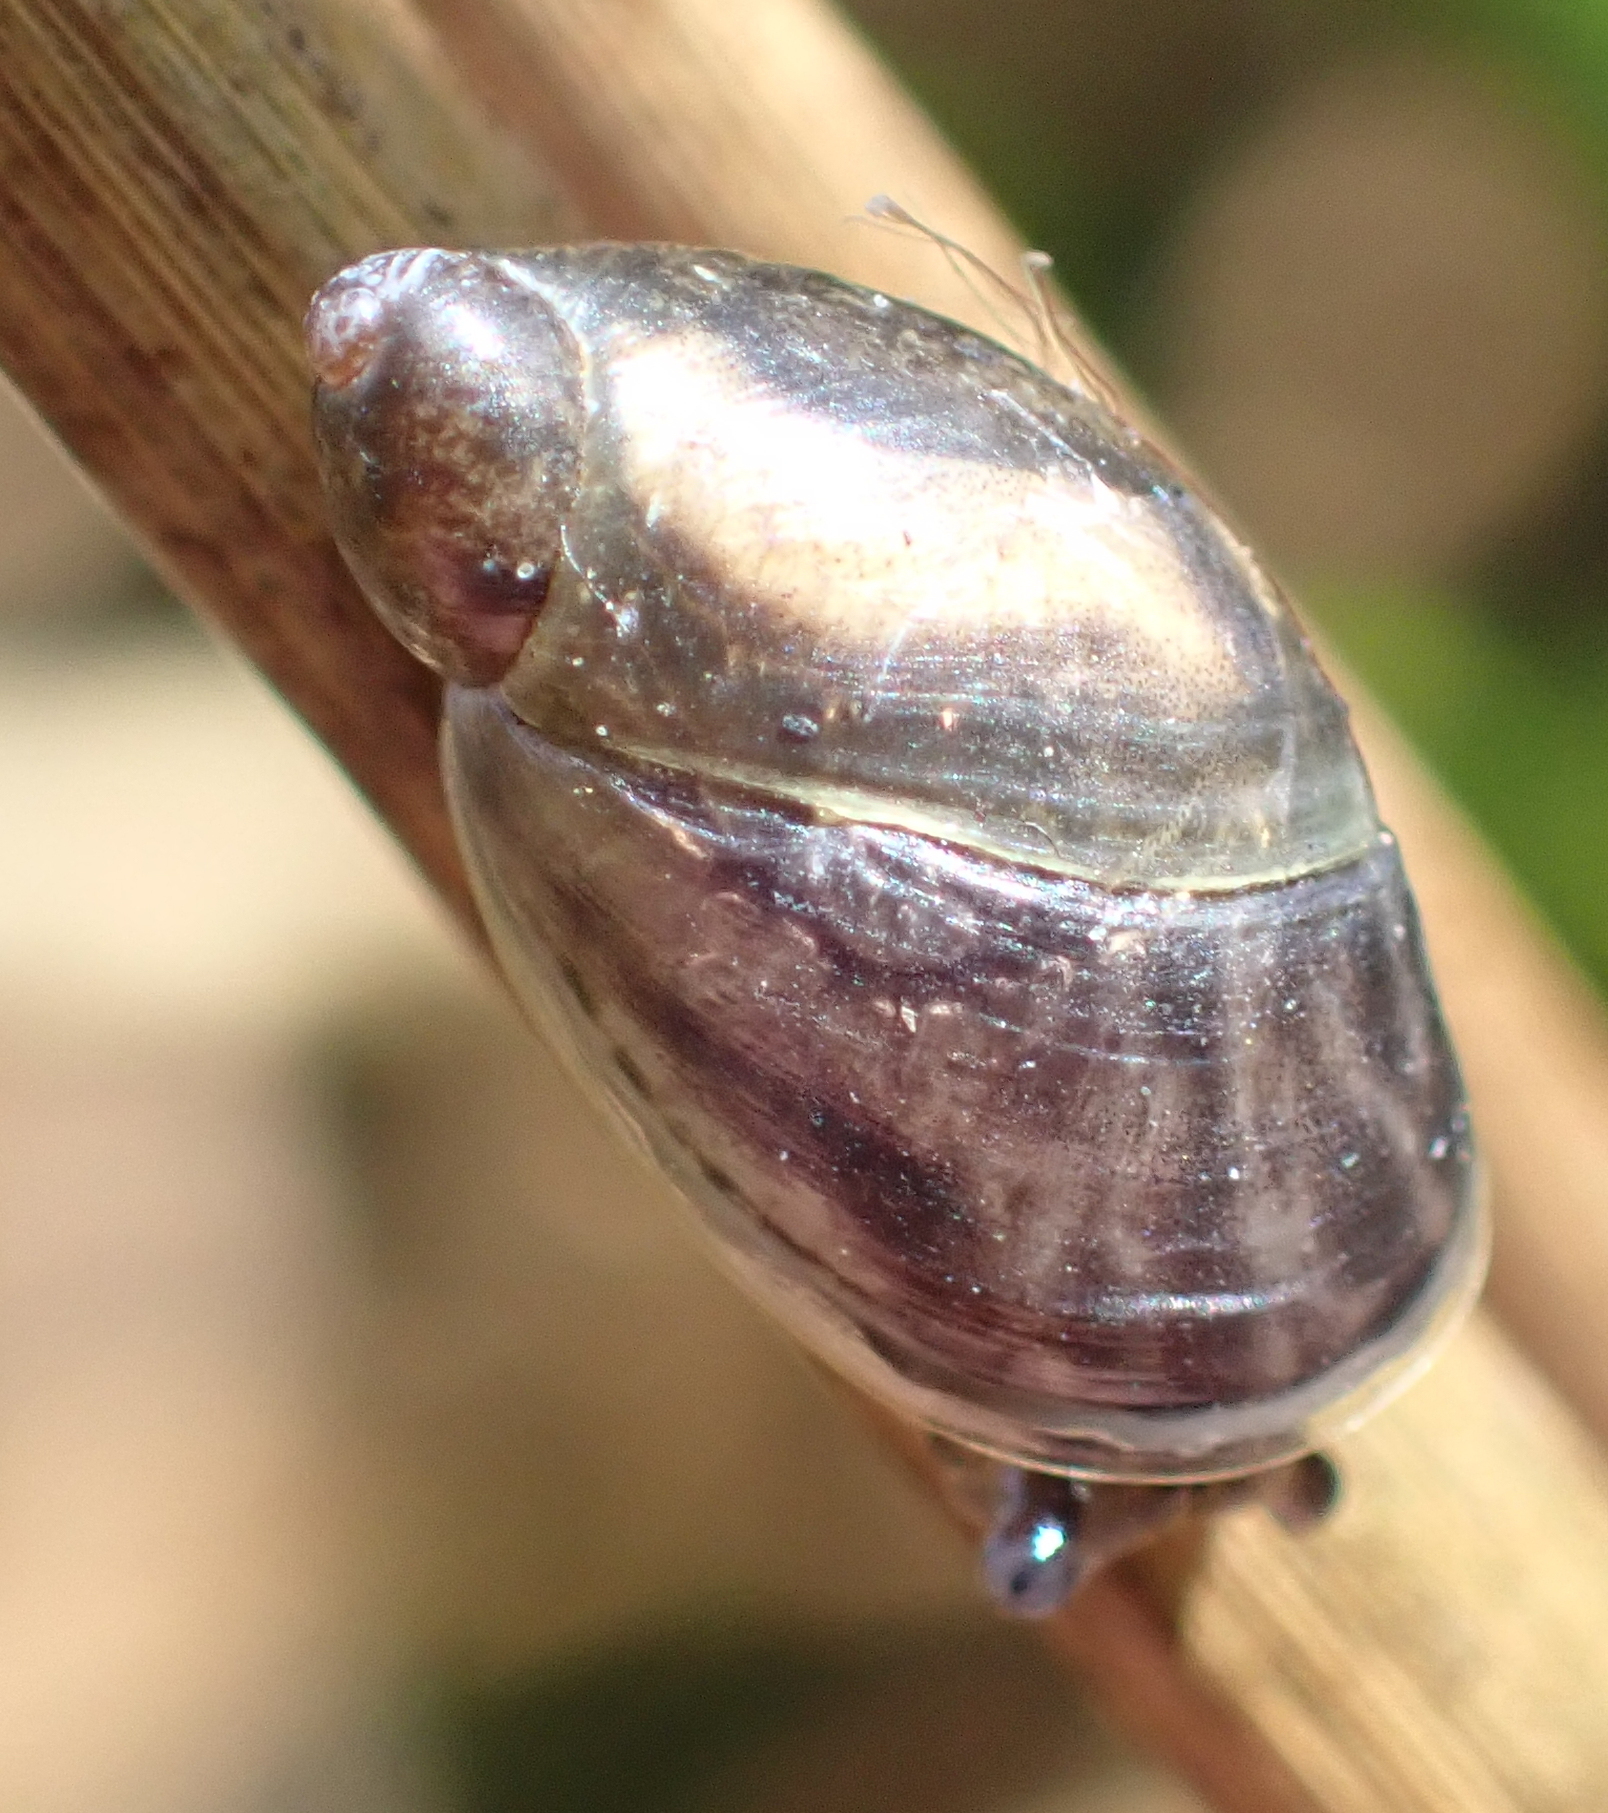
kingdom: Animalia
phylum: Mollusca
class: Gastropoda
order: Stylommatophora
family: Succineidae
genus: Succinea
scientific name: Succinea putris
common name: European ambersnail
